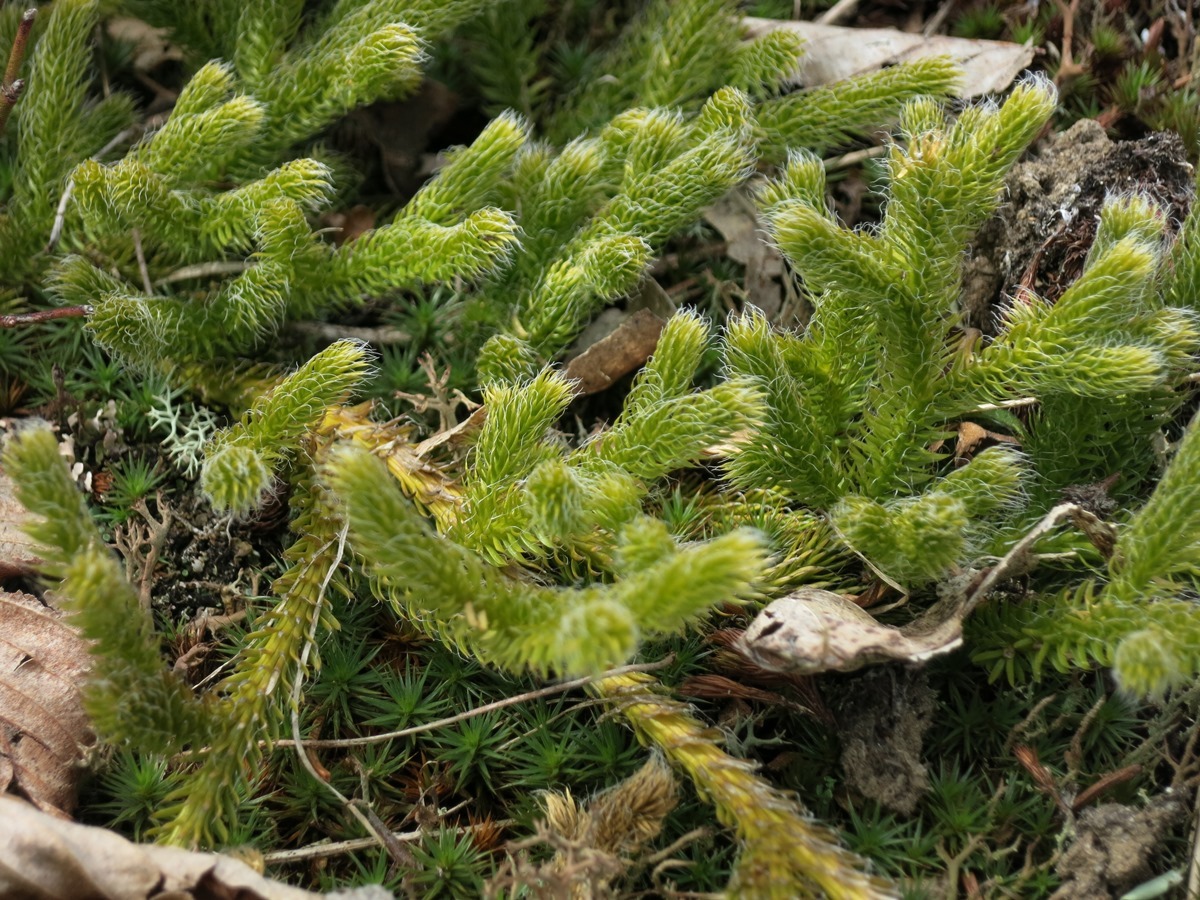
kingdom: Plantae
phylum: Tracheophyta
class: Lycopodiopsida
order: Lycopodiales
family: Lycopodiaceae
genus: Lycopodium
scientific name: Lycopodium clavatum
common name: Stag's-horn clubmoss
